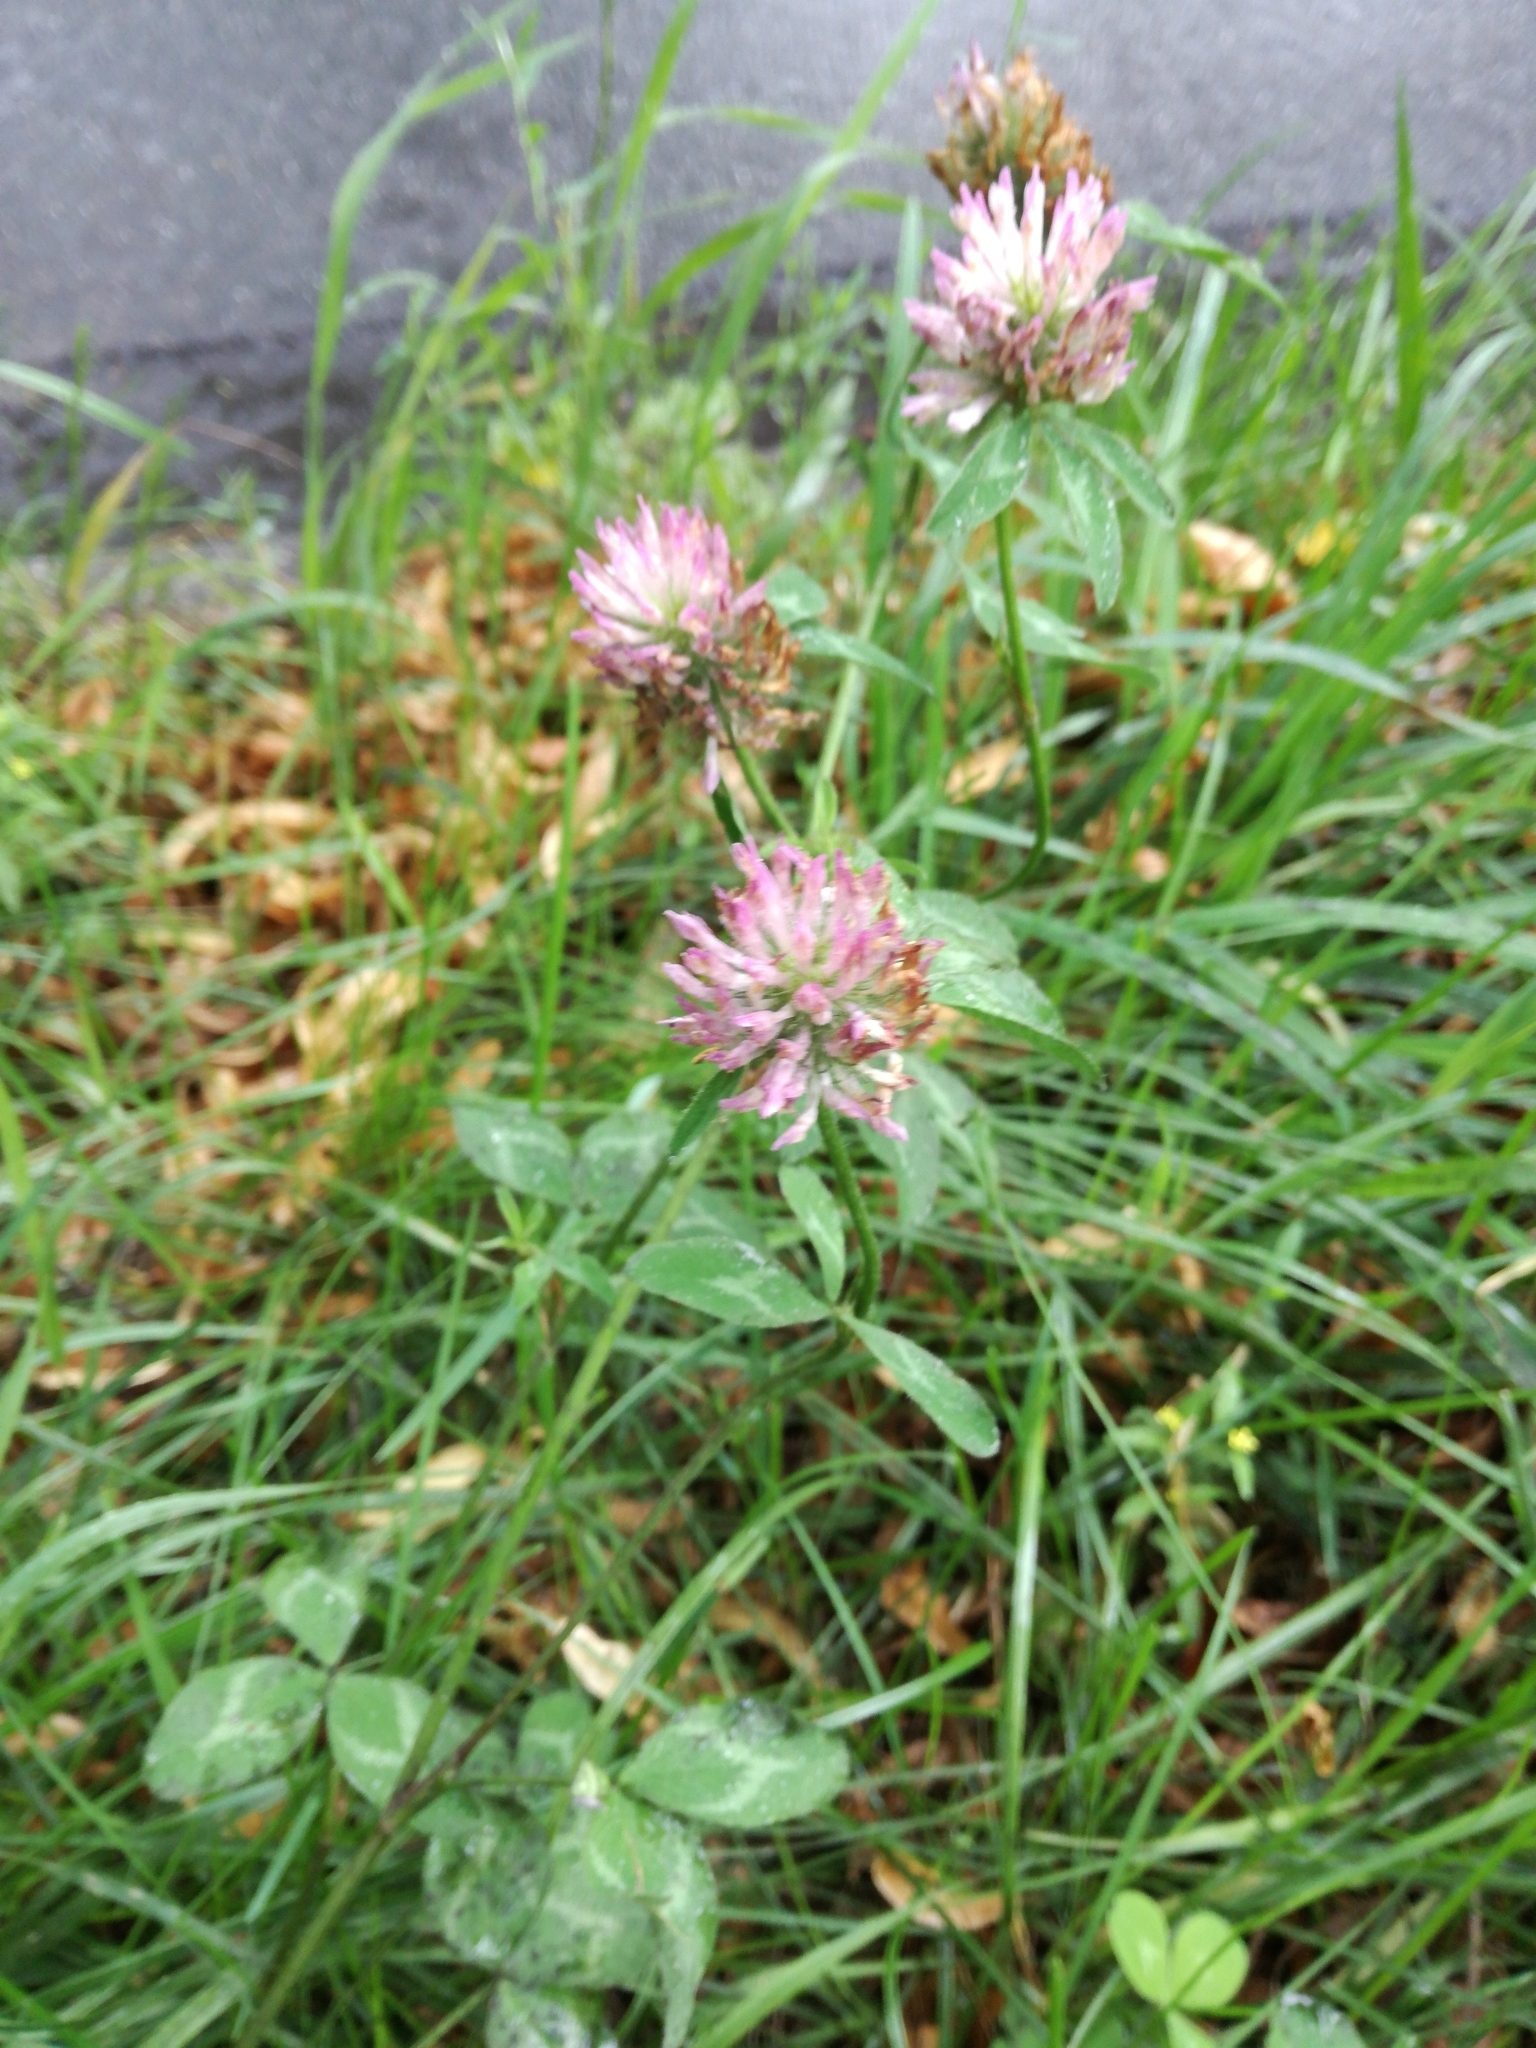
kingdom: Plantae
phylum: Tracheophyta
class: Magnoliopsida
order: Fabales
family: Fabaceae
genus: Trifolium
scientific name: Trifolium pratense
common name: Red clover
